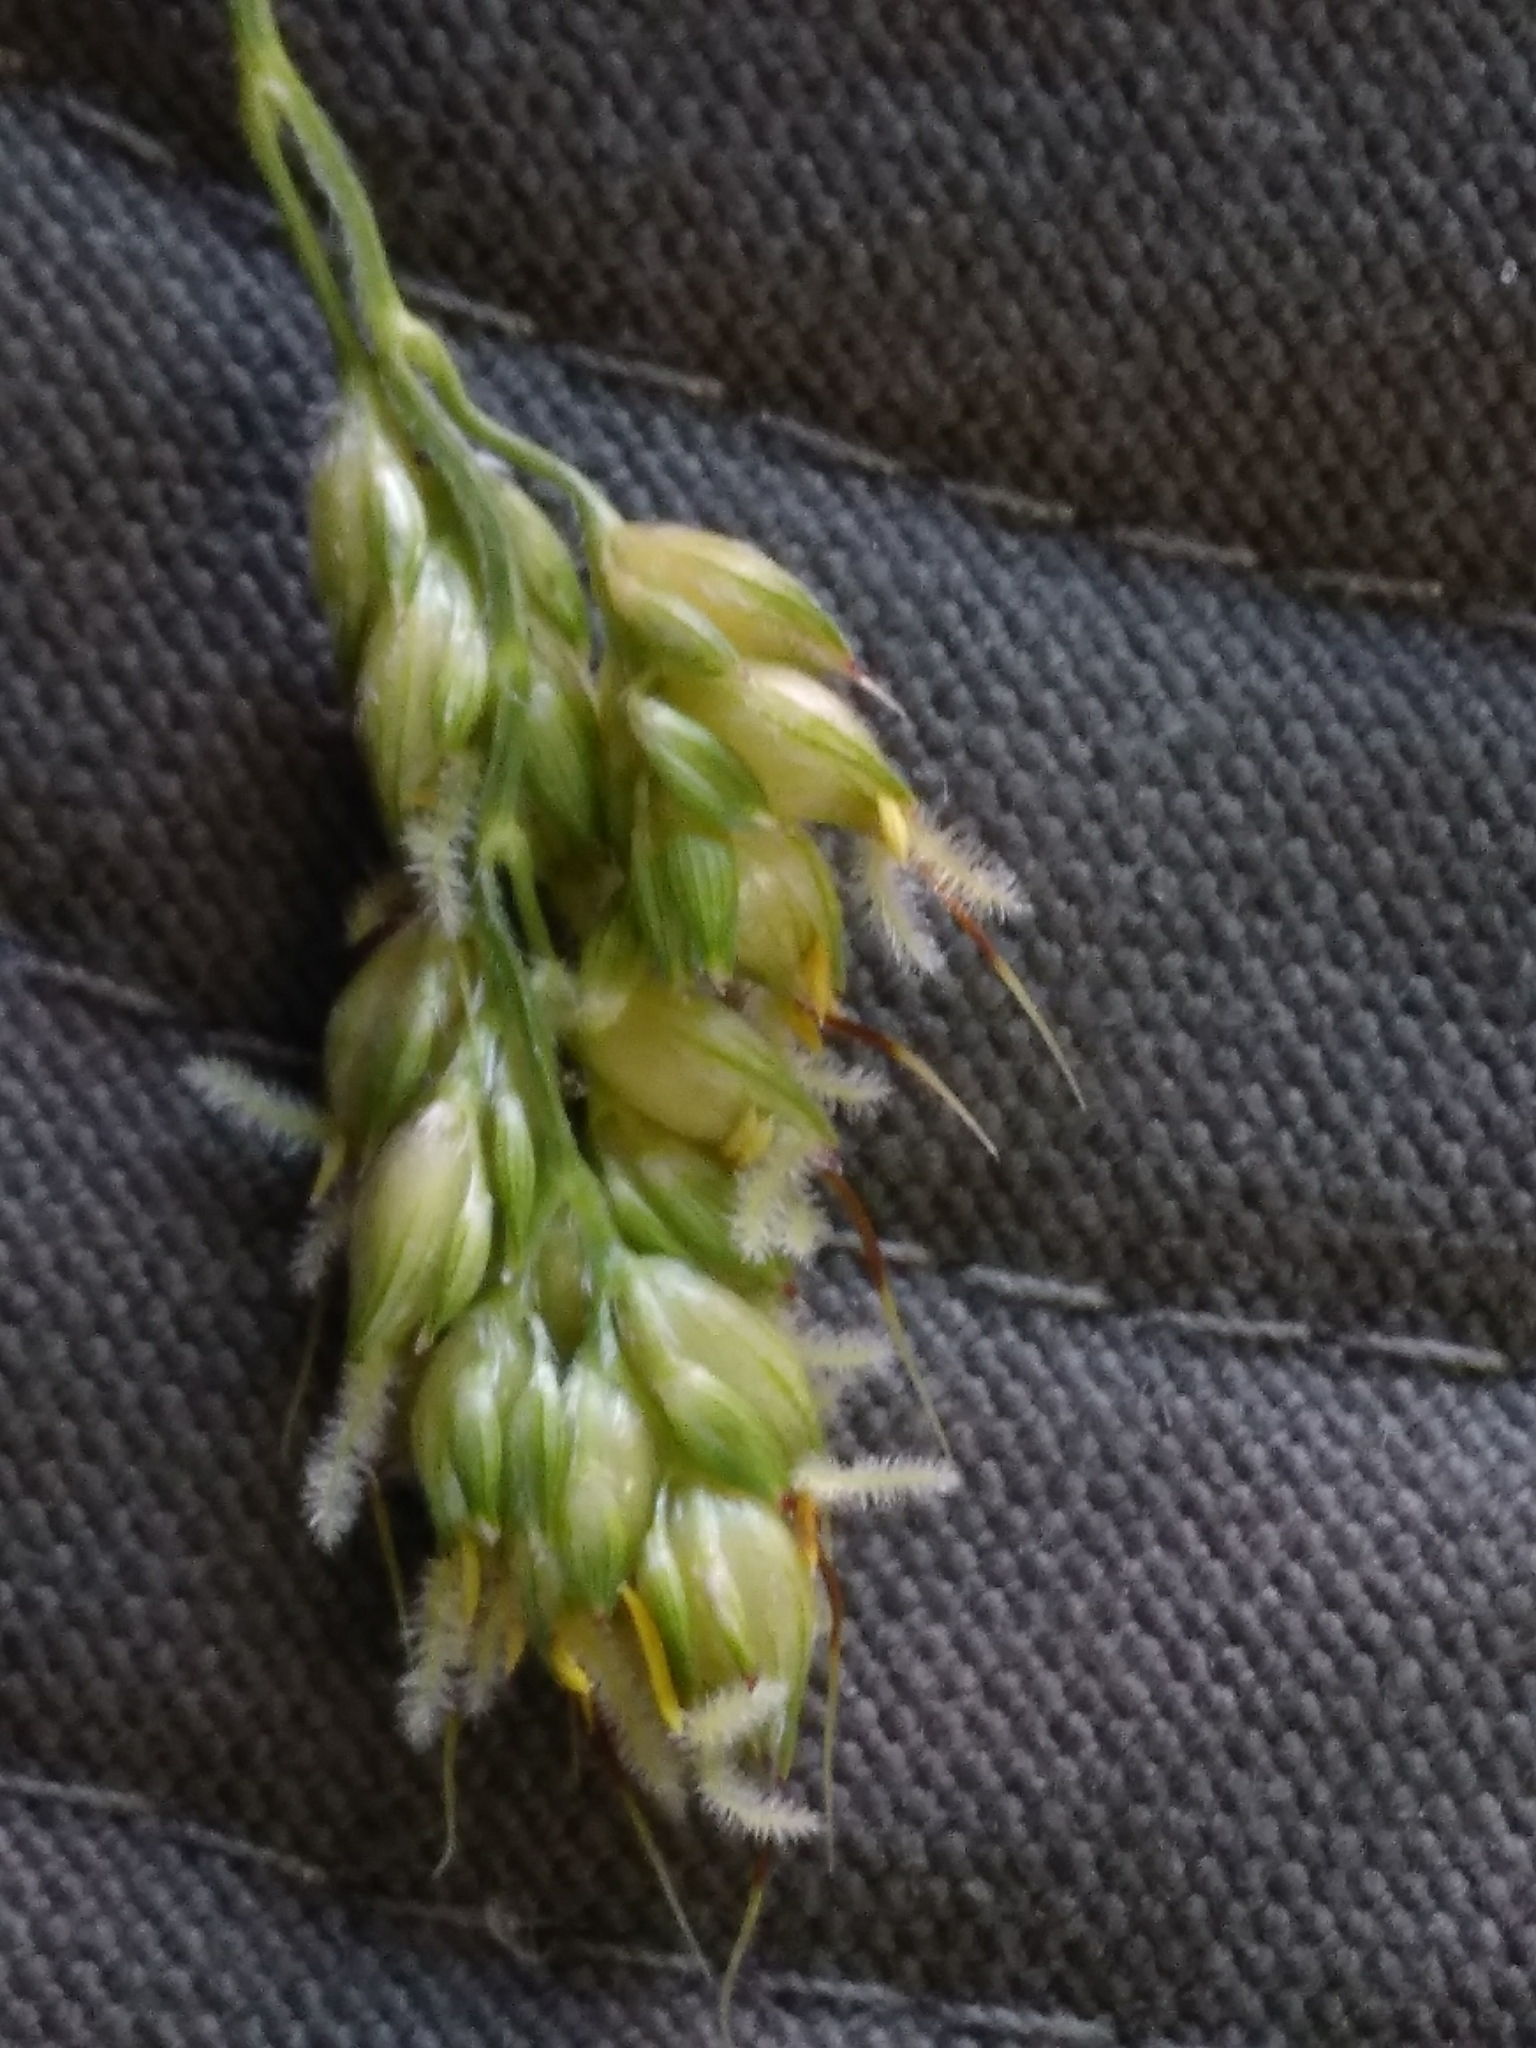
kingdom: Plantae
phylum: Tracheophyta
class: Liliopsida
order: Poales
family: Poaceae
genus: Sorghum
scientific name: Sorghum bicolor
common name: Sorghum
